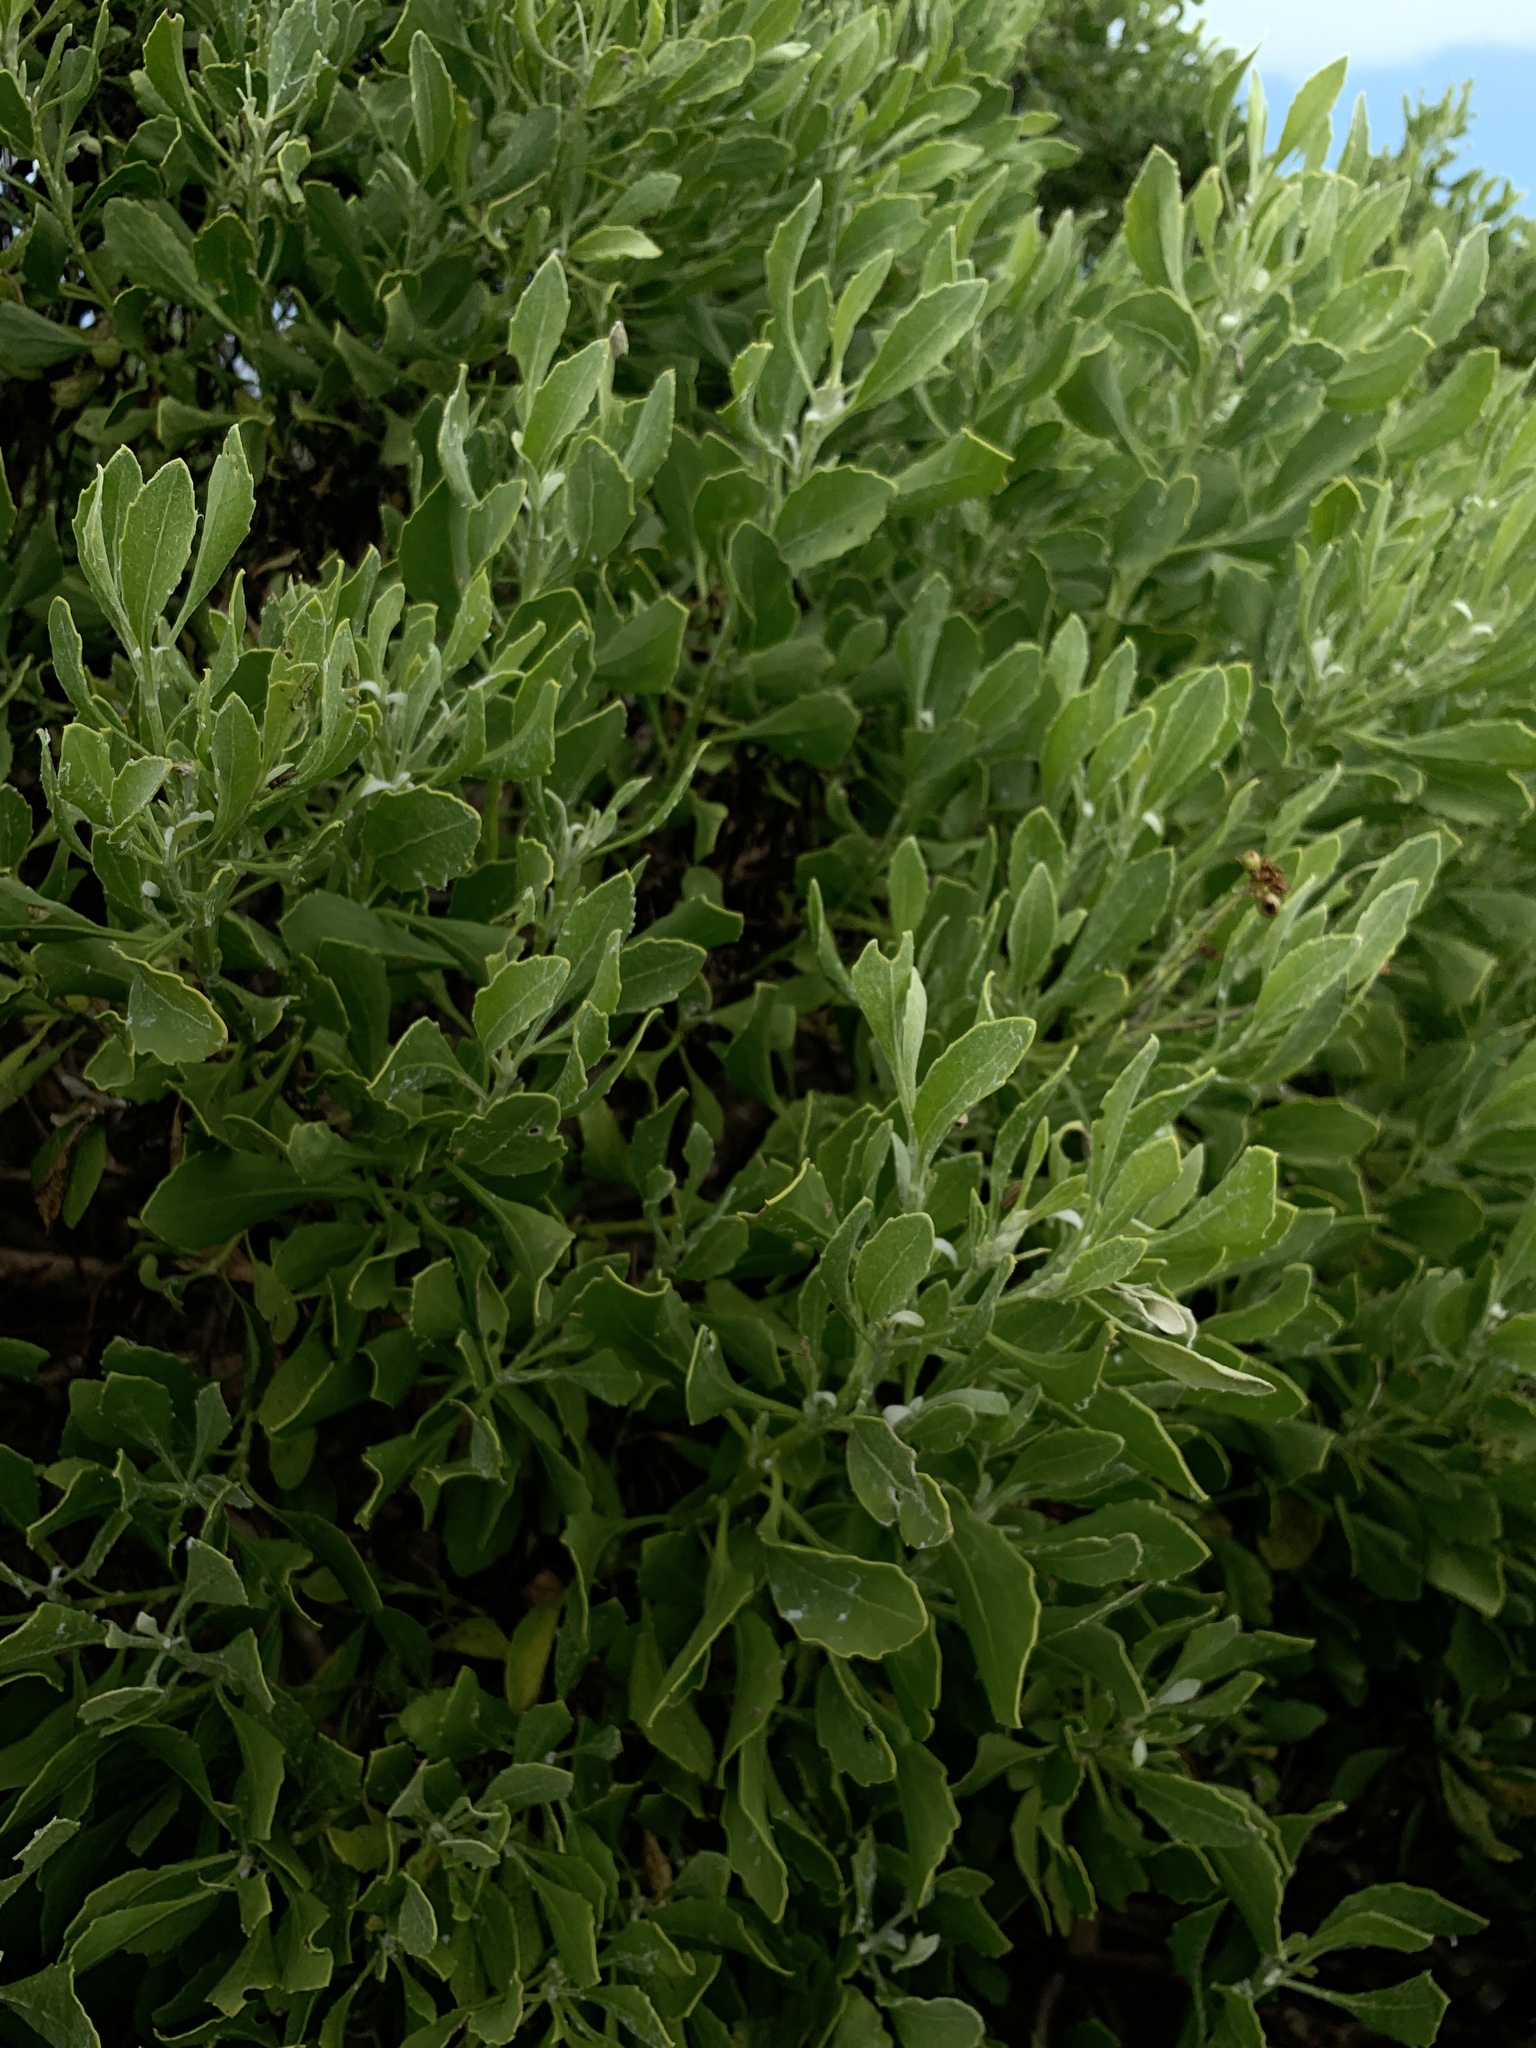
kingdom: Plantae
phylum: Tracheophyta
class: Magnoliopsida
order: Asterales
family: Asteraceae
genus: Osteospermum
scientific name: Osteospermum moniliferum
